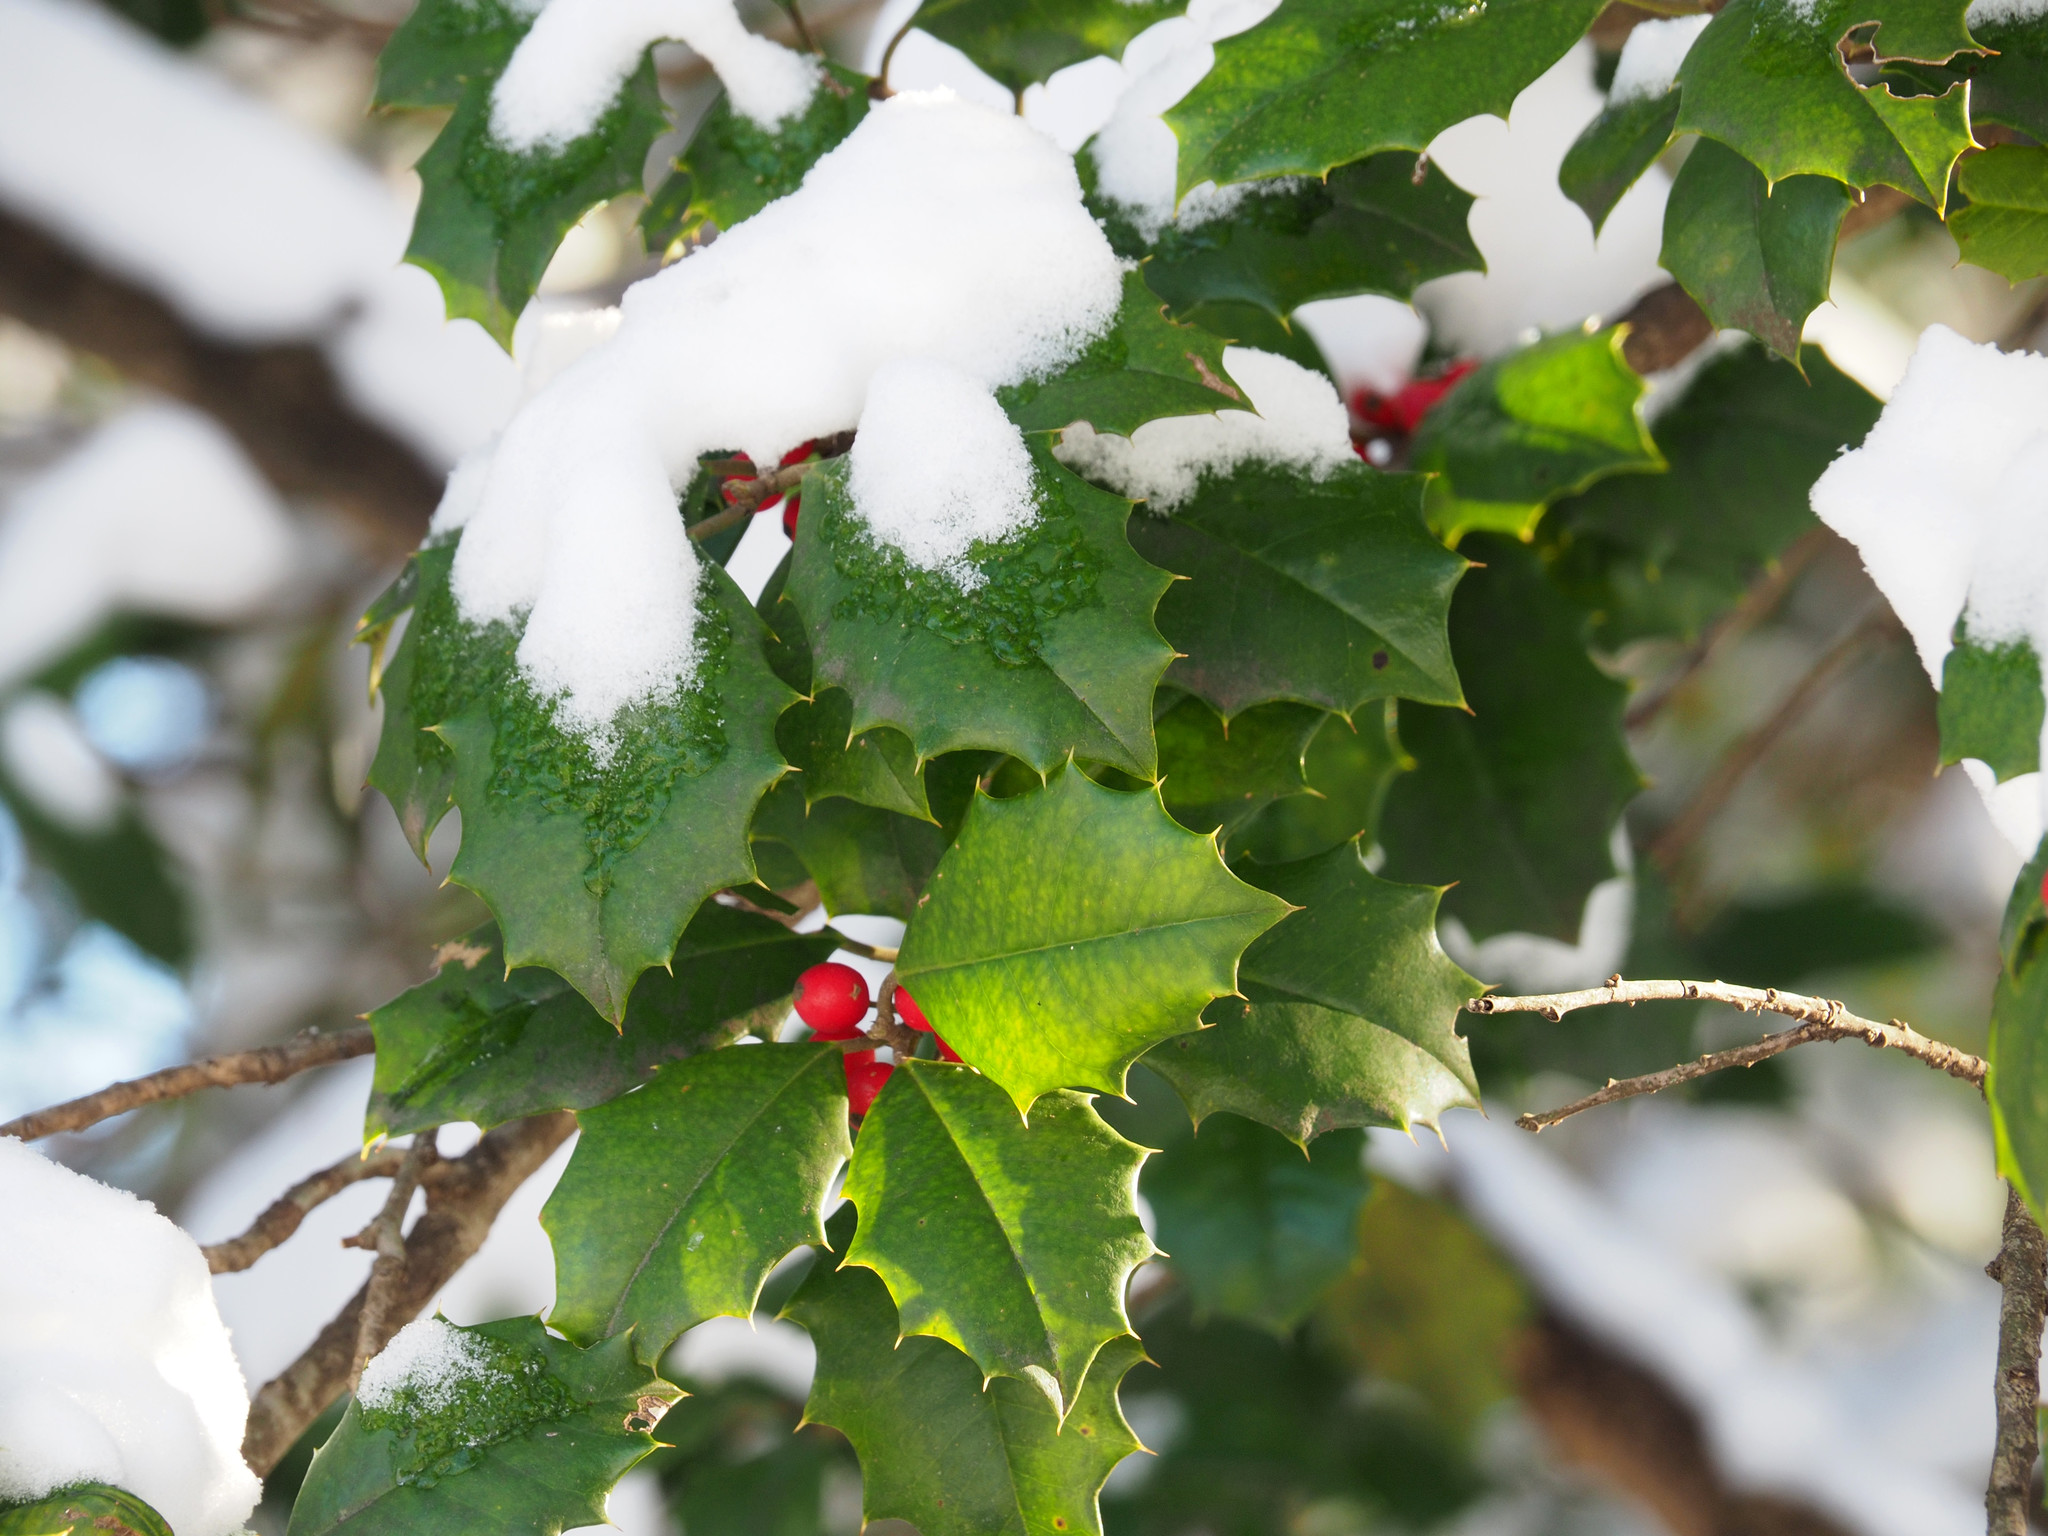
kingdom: Plantae
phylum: Tracheophyta
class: Magnoliopsida
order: Aquifoliales
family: Aquifoliaceae
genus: Ilex
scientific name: Ilex opaca
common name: American holly
